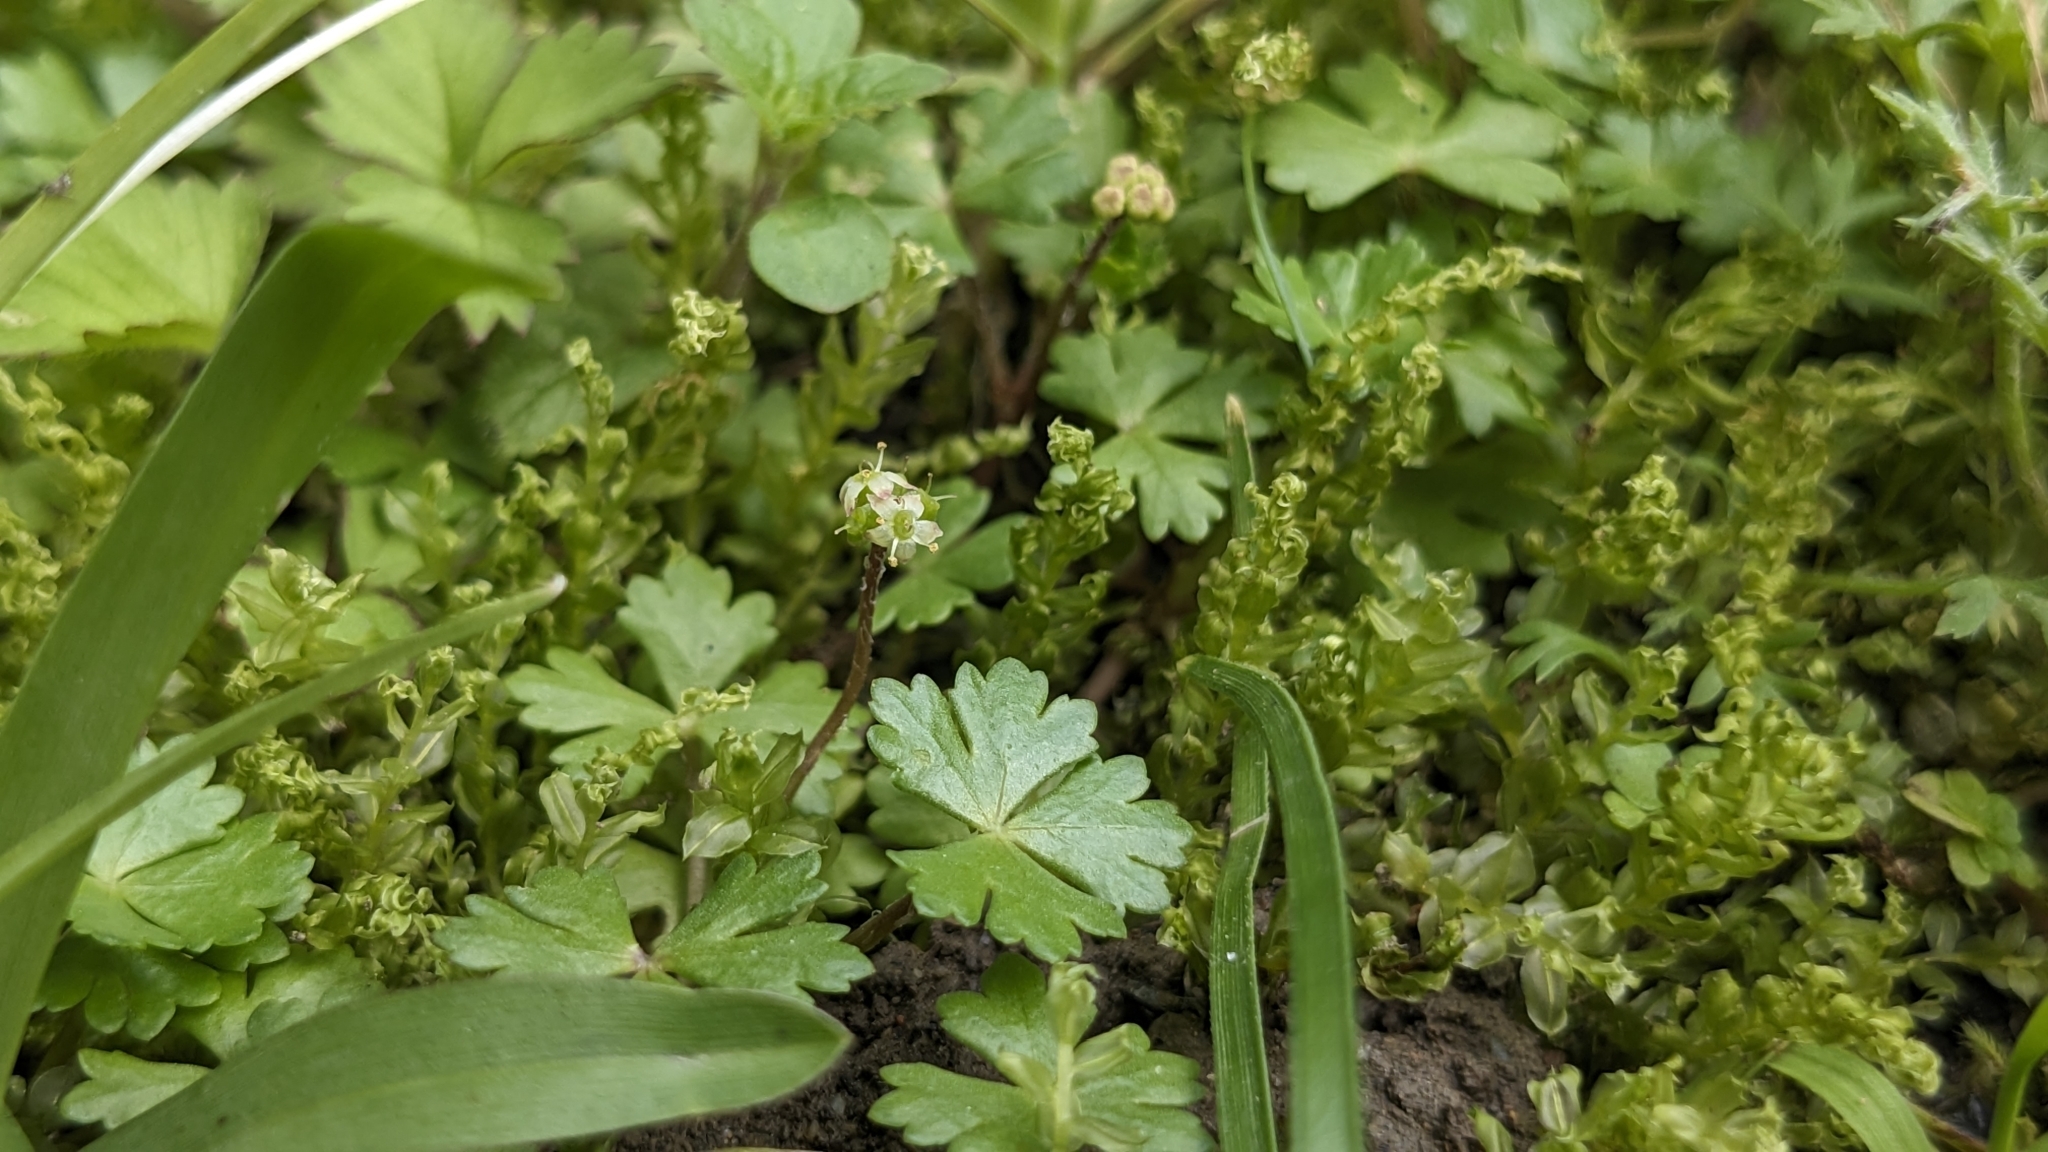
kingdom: Plantae
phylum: Tracheophyta
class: Magnoliopsida
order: Apiales
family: Araliaceae
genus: Hydrocotyle
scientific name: Hydrocotyle batrachium
